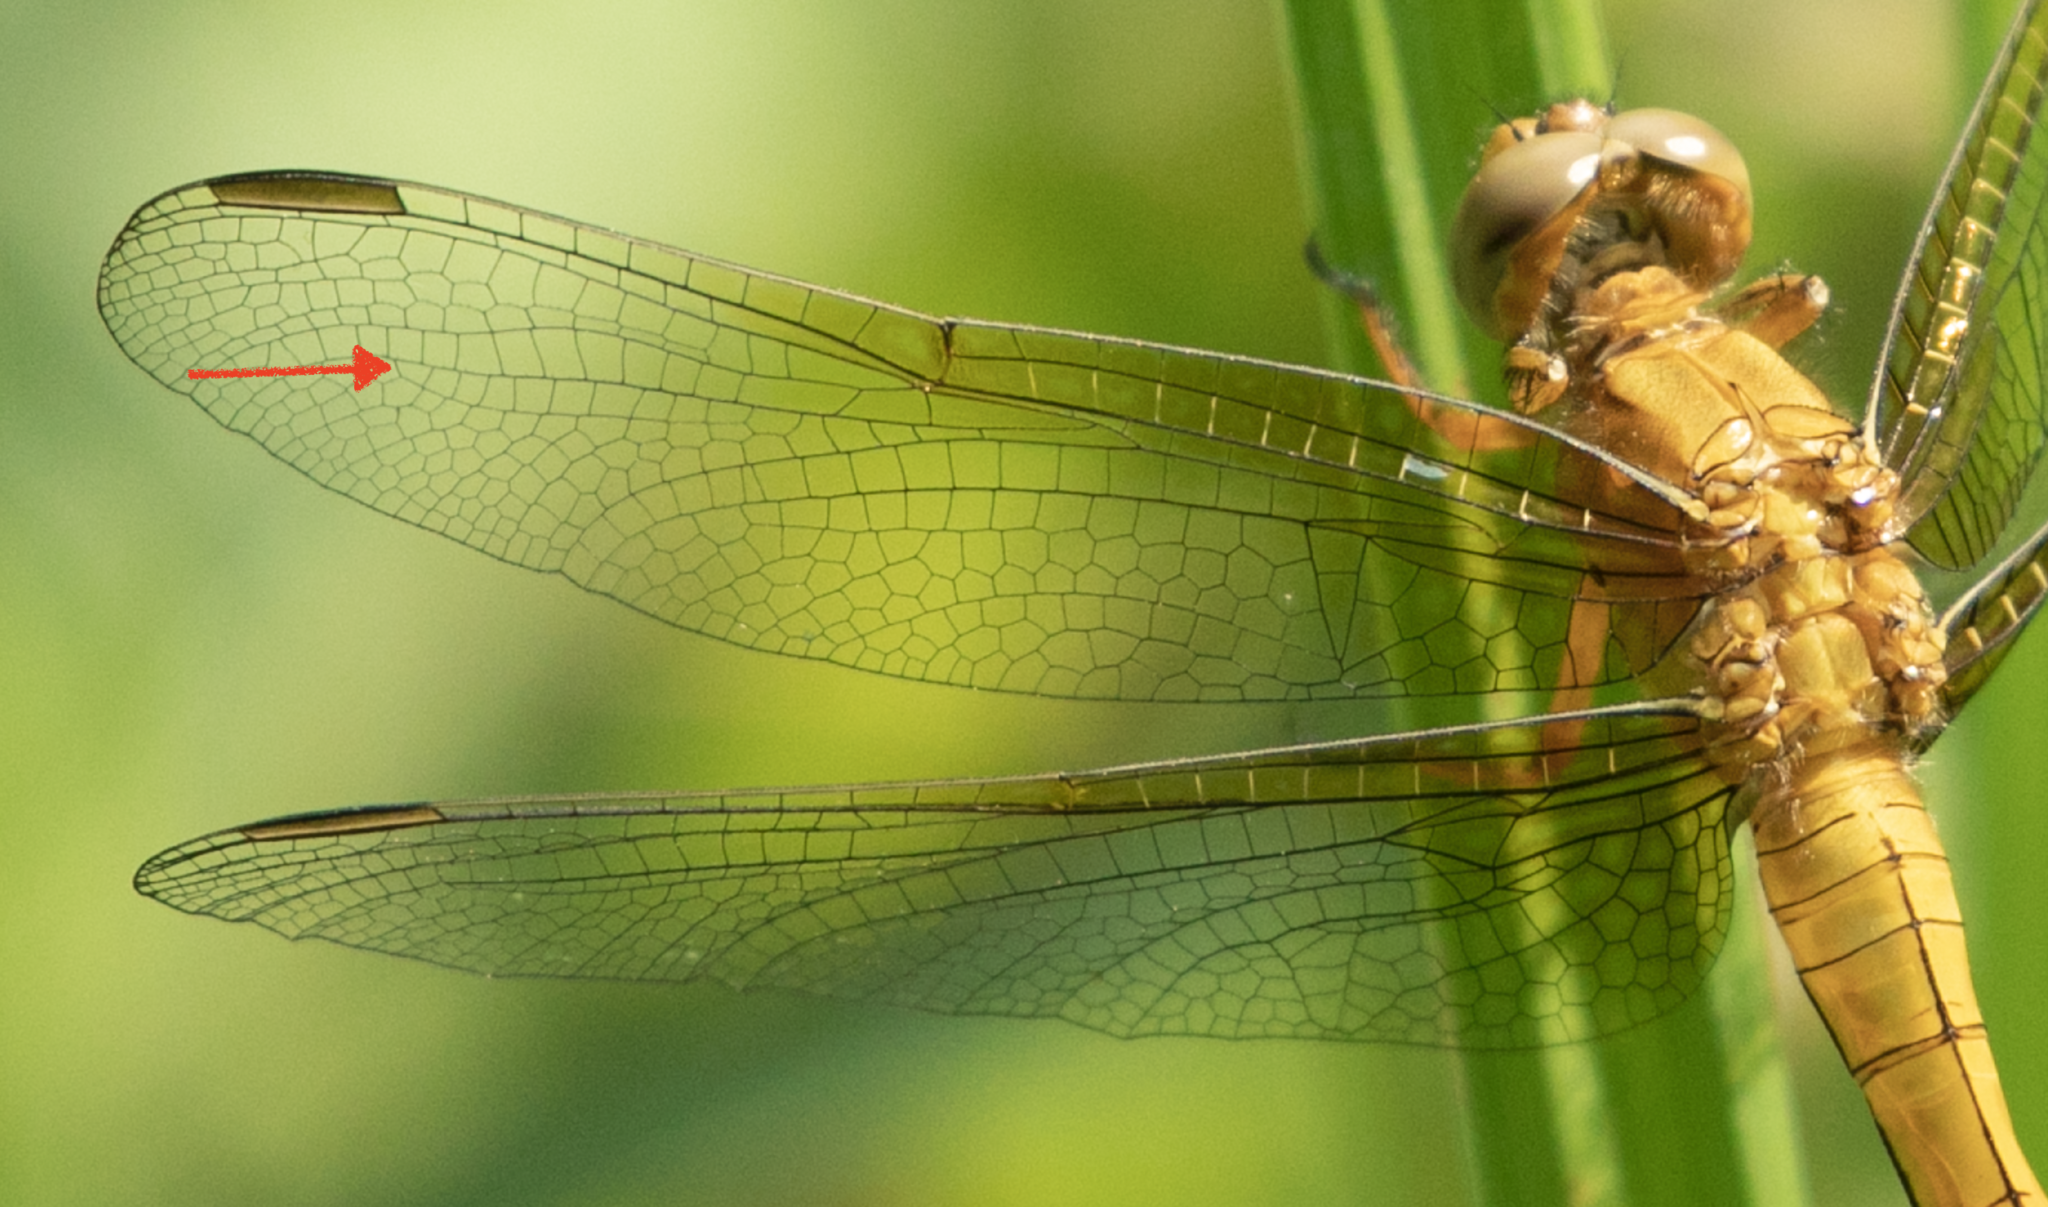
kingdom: Animalia
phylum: Arthropoda
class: Insecta
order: Odonata
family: Libellulidae
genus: Orthetrum
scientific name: Orthetrum coerulescens
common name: Keeled skimmer
